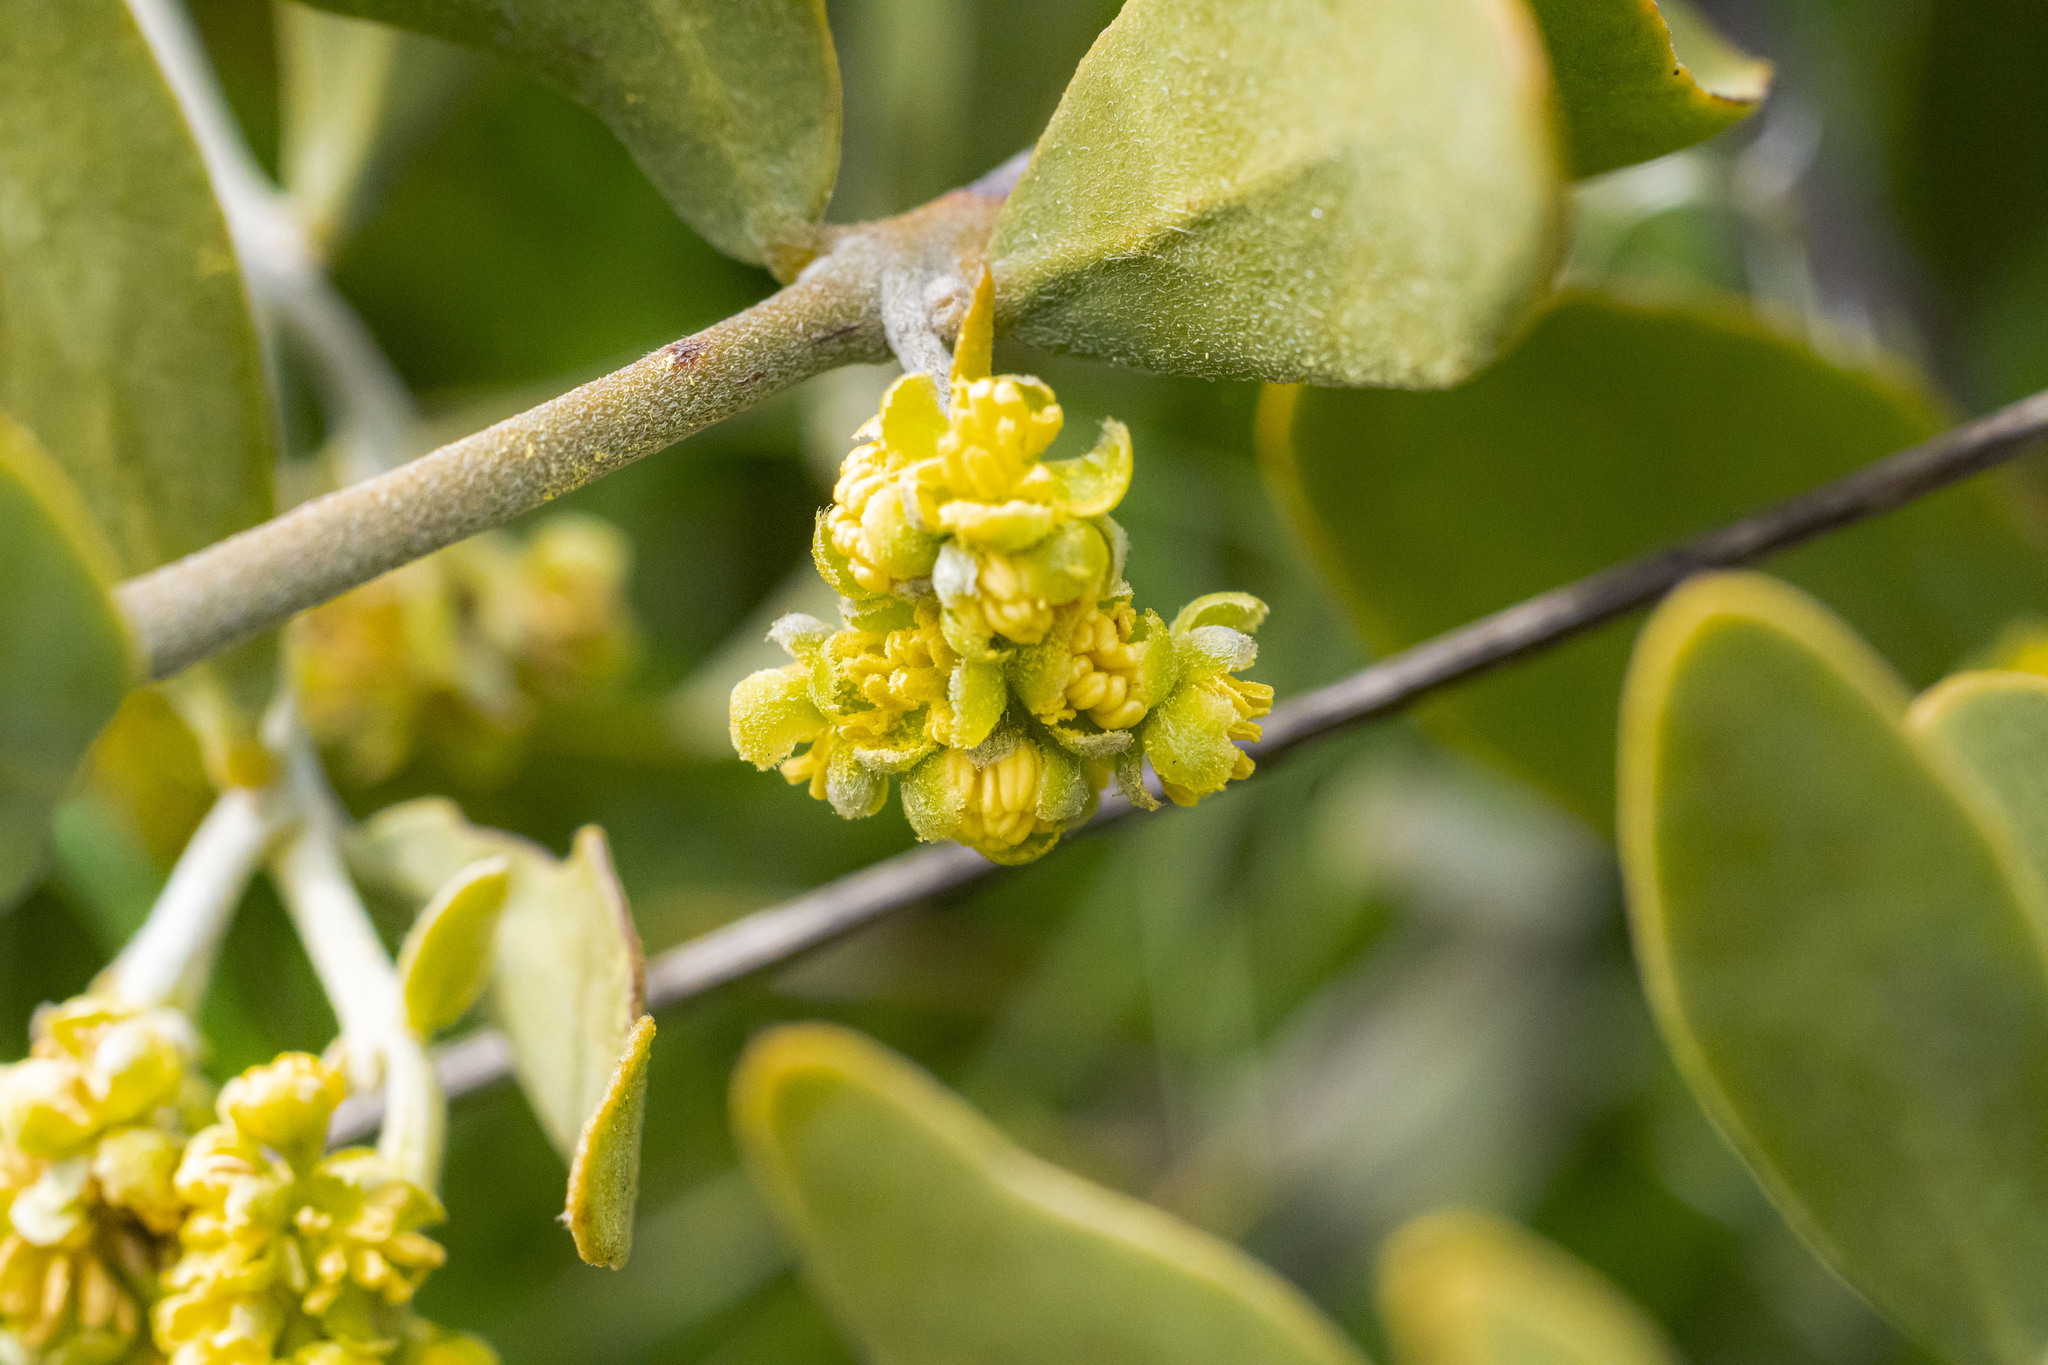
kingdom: Plantae
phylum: Tracheophyta
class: Magnoliopsida
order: Caryophyllales
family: Simmondsiaceae
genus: Simmondsia
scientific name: Simmondsia chinensis
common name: Jojoba
